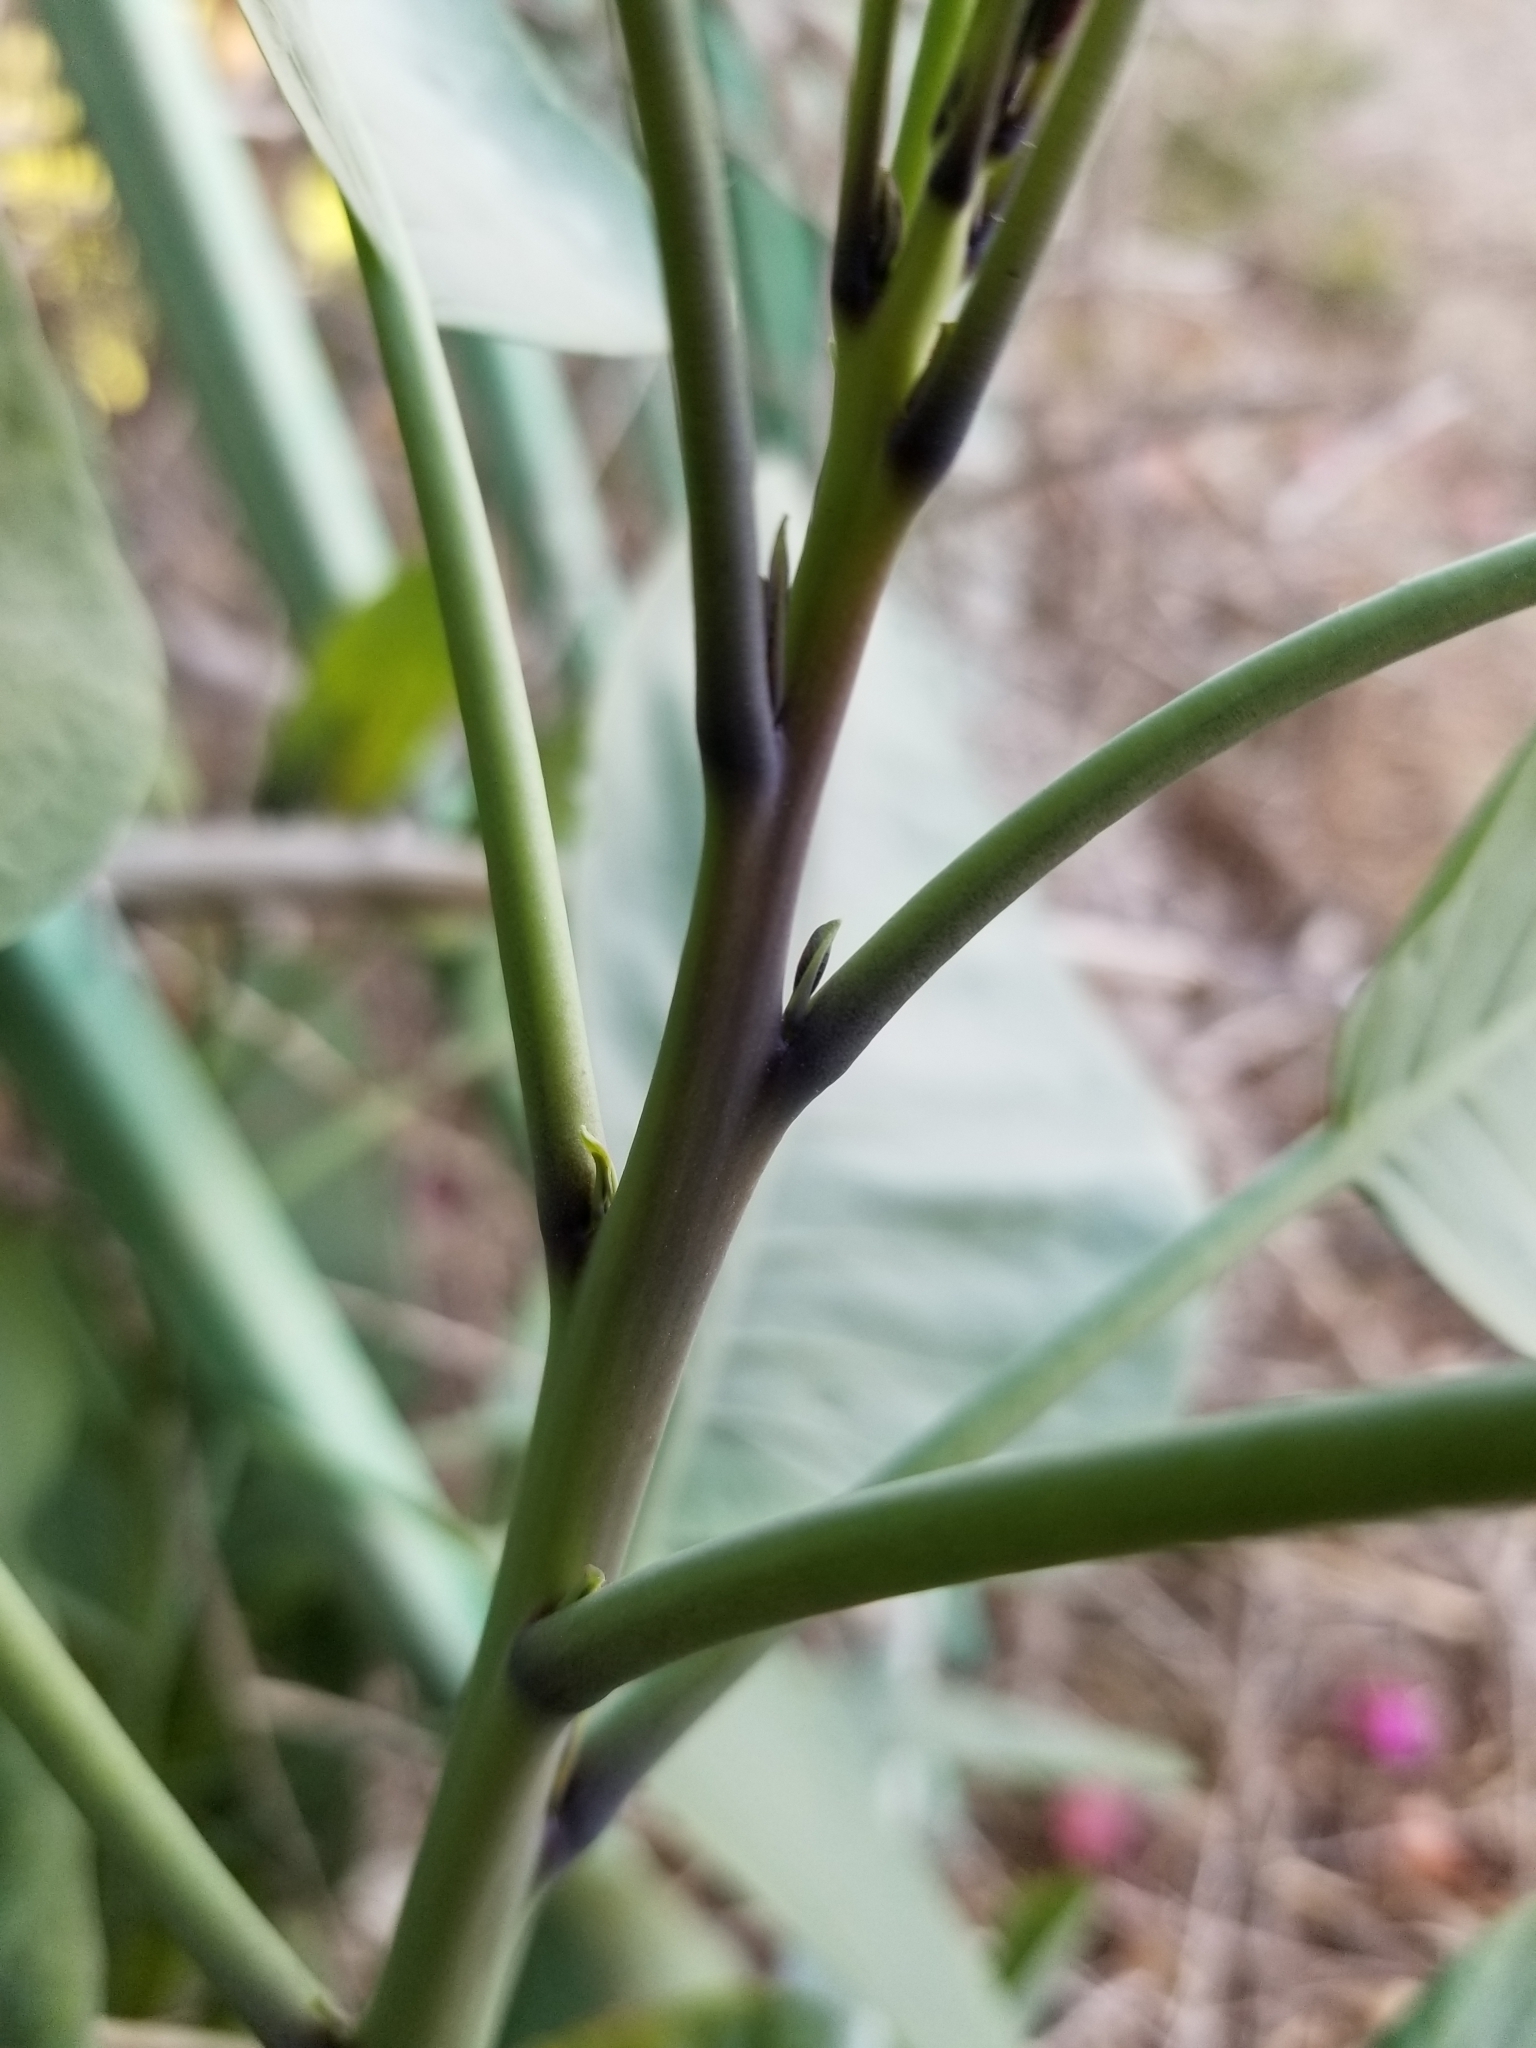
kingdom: Plantae
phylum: Tracheophyta
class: Magnoliopsida
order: Solanales
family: Solanaceae
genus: Nicotiana
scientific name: Nicotiana glauca
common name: Tree tobacco
